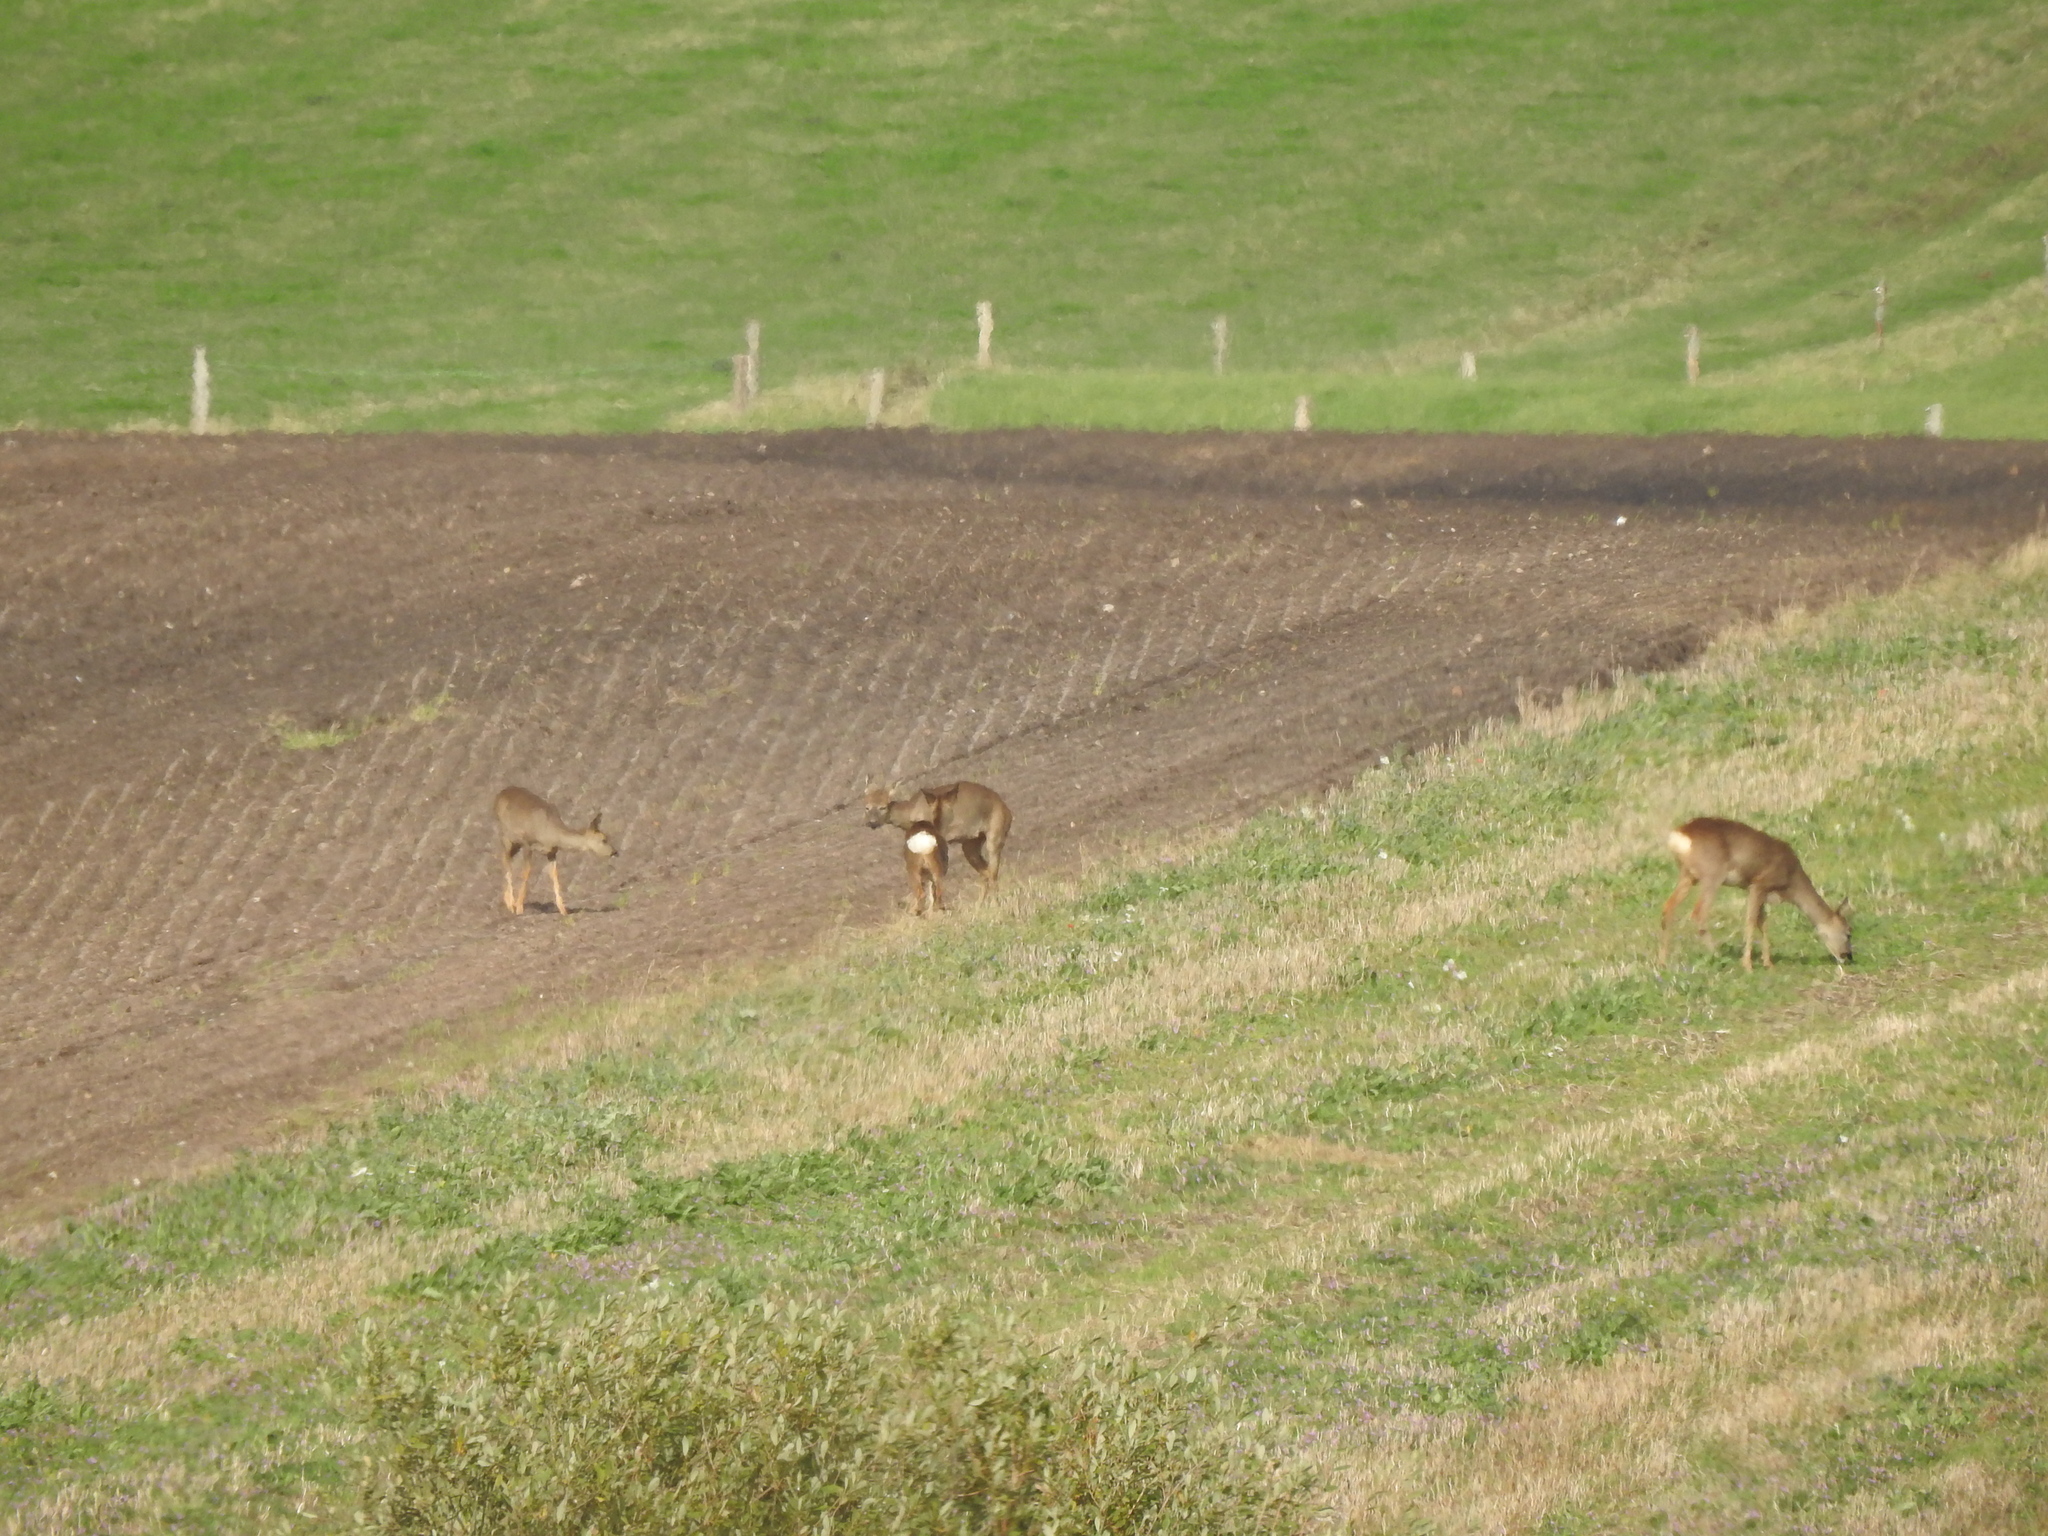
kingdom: Animalia
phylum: Chordata
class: Mammalia
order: Artiodactyla
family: Cervidae
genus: Capreolus
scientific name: Capreolus capreolus
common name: Western roe deer
